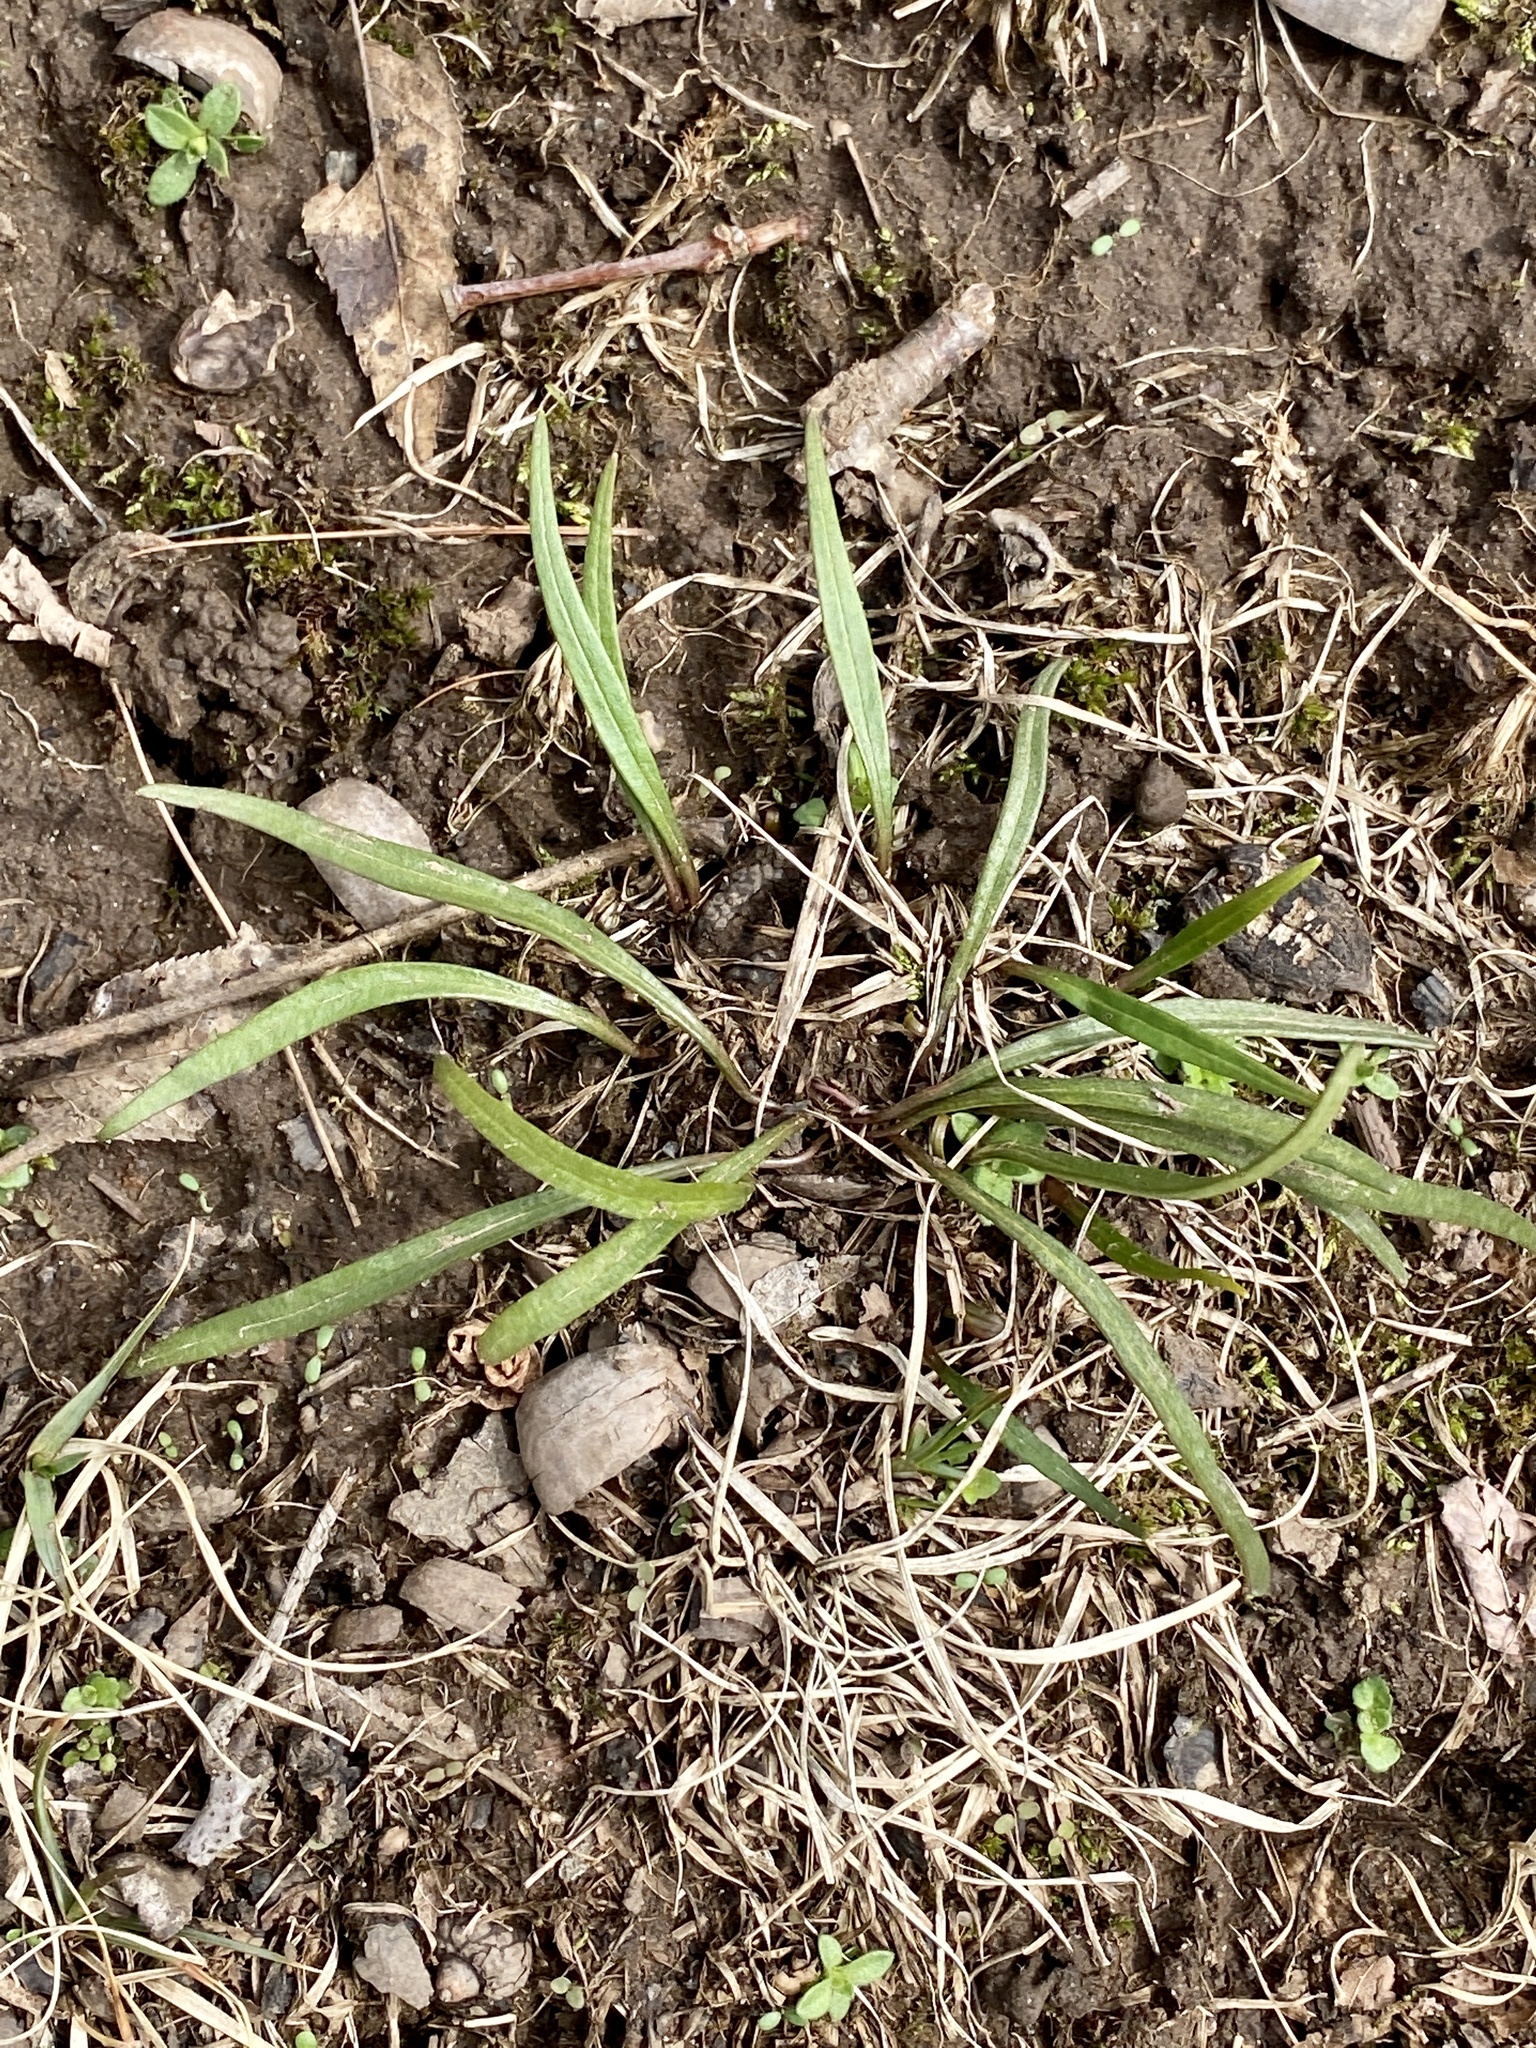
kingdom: Plantae
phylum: Tracheophyta
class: Magnoliopsida
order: Caryophyllales
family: Montiaceae
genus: Claytonia
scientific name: Claytonia virginica
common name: Virginia springbeauty
